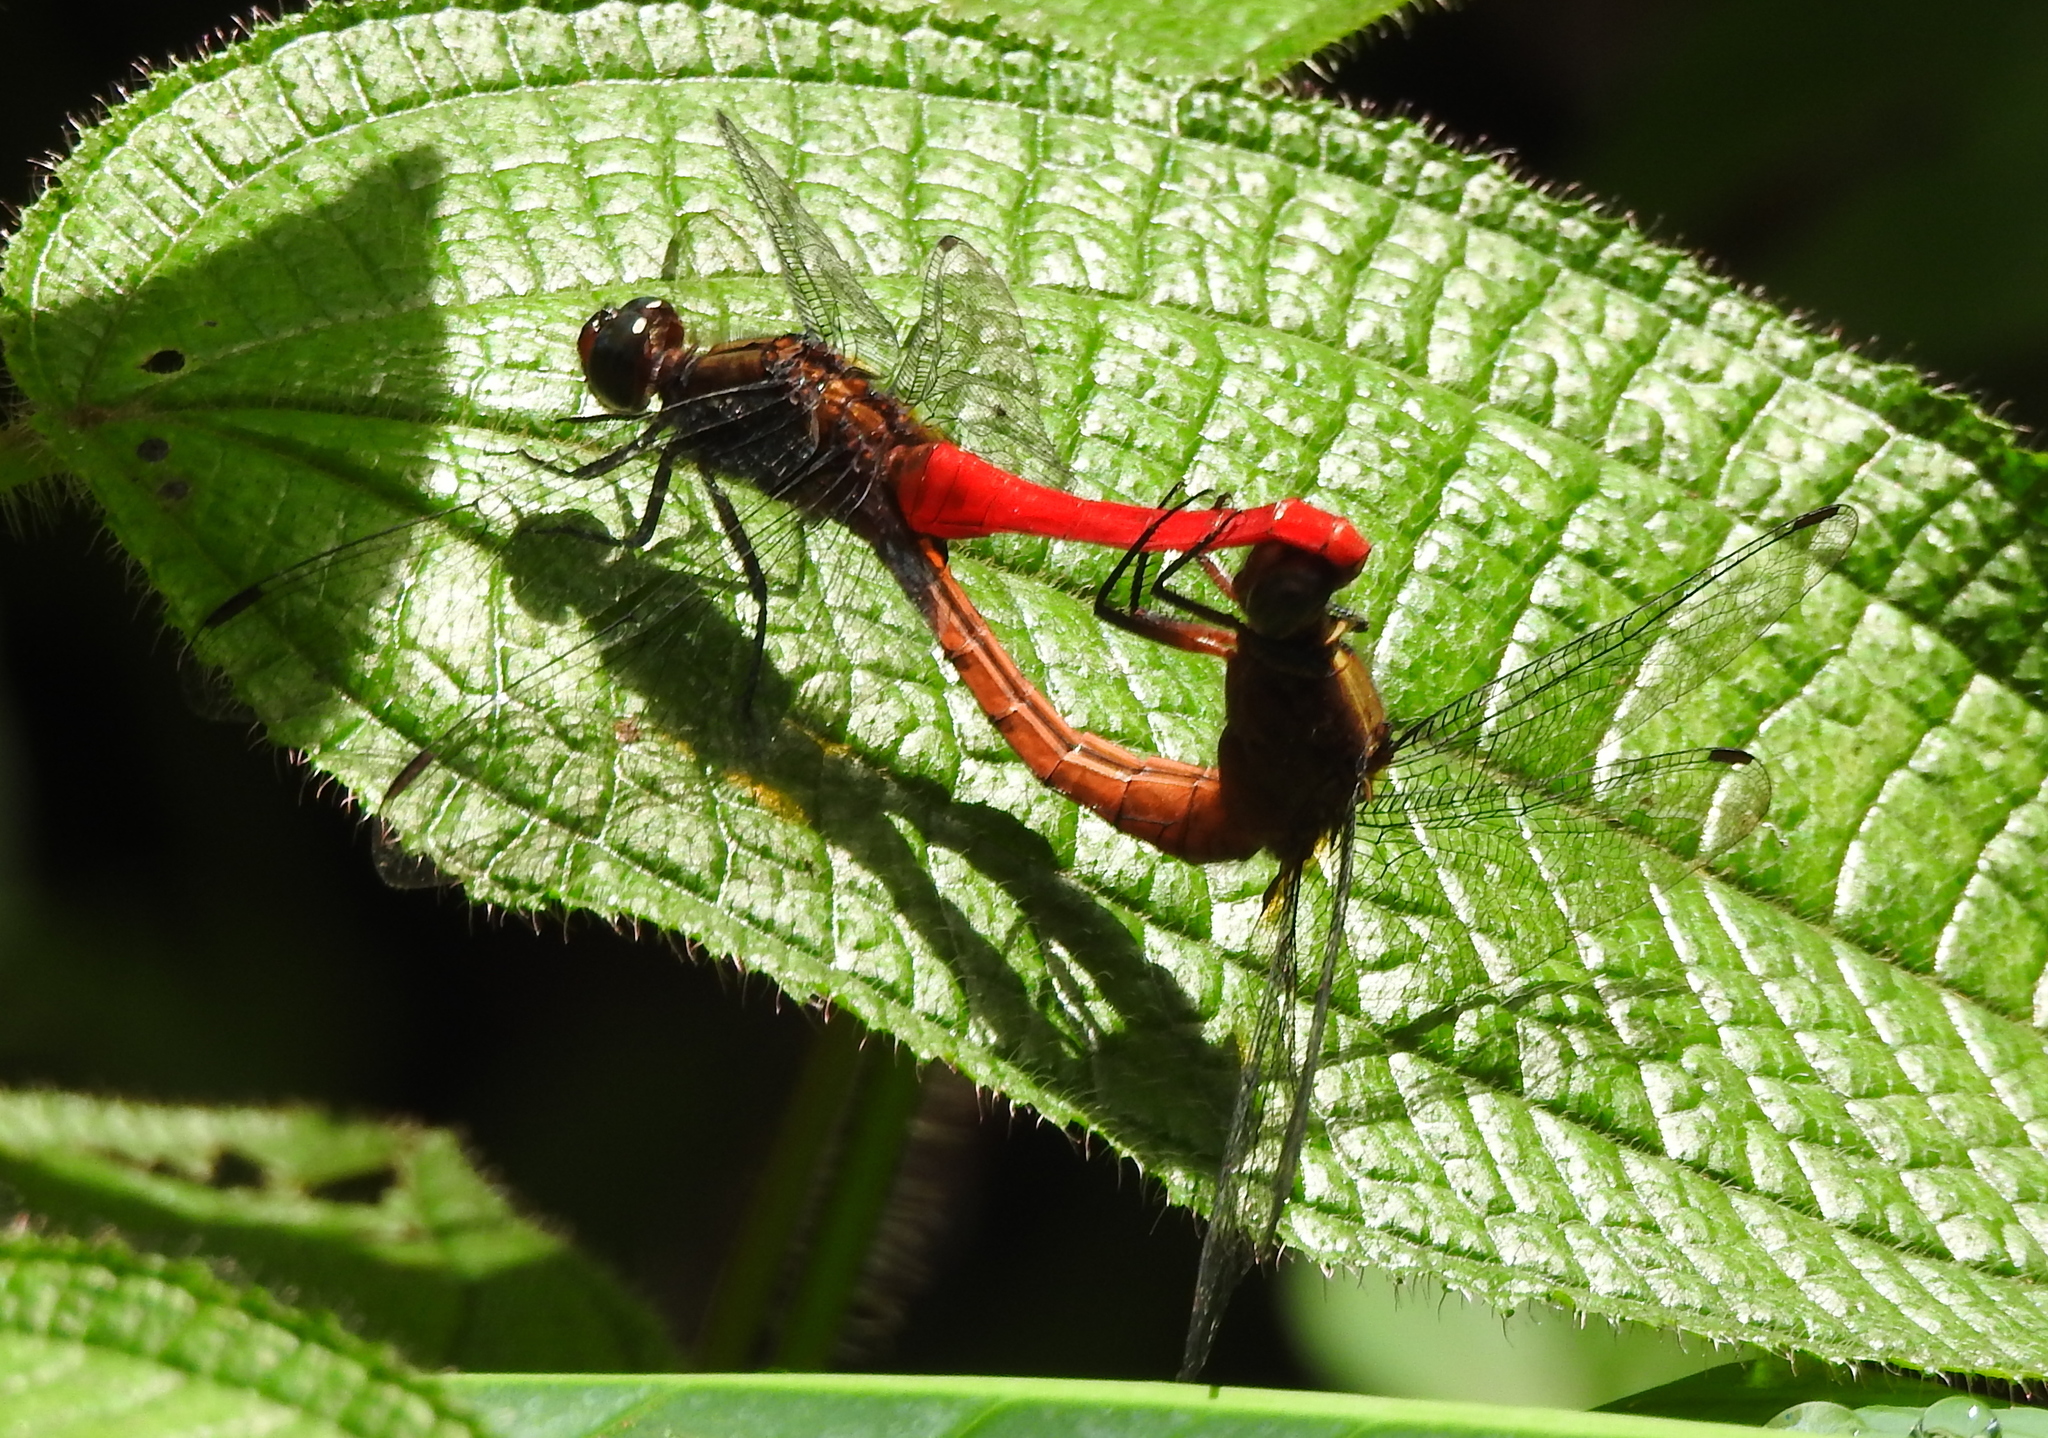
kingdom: Animalia
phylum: Arthropoda
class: Insecta
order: Odonata
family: Libellulidae
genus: Orthetrum
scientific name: Orthetrum chrysis
